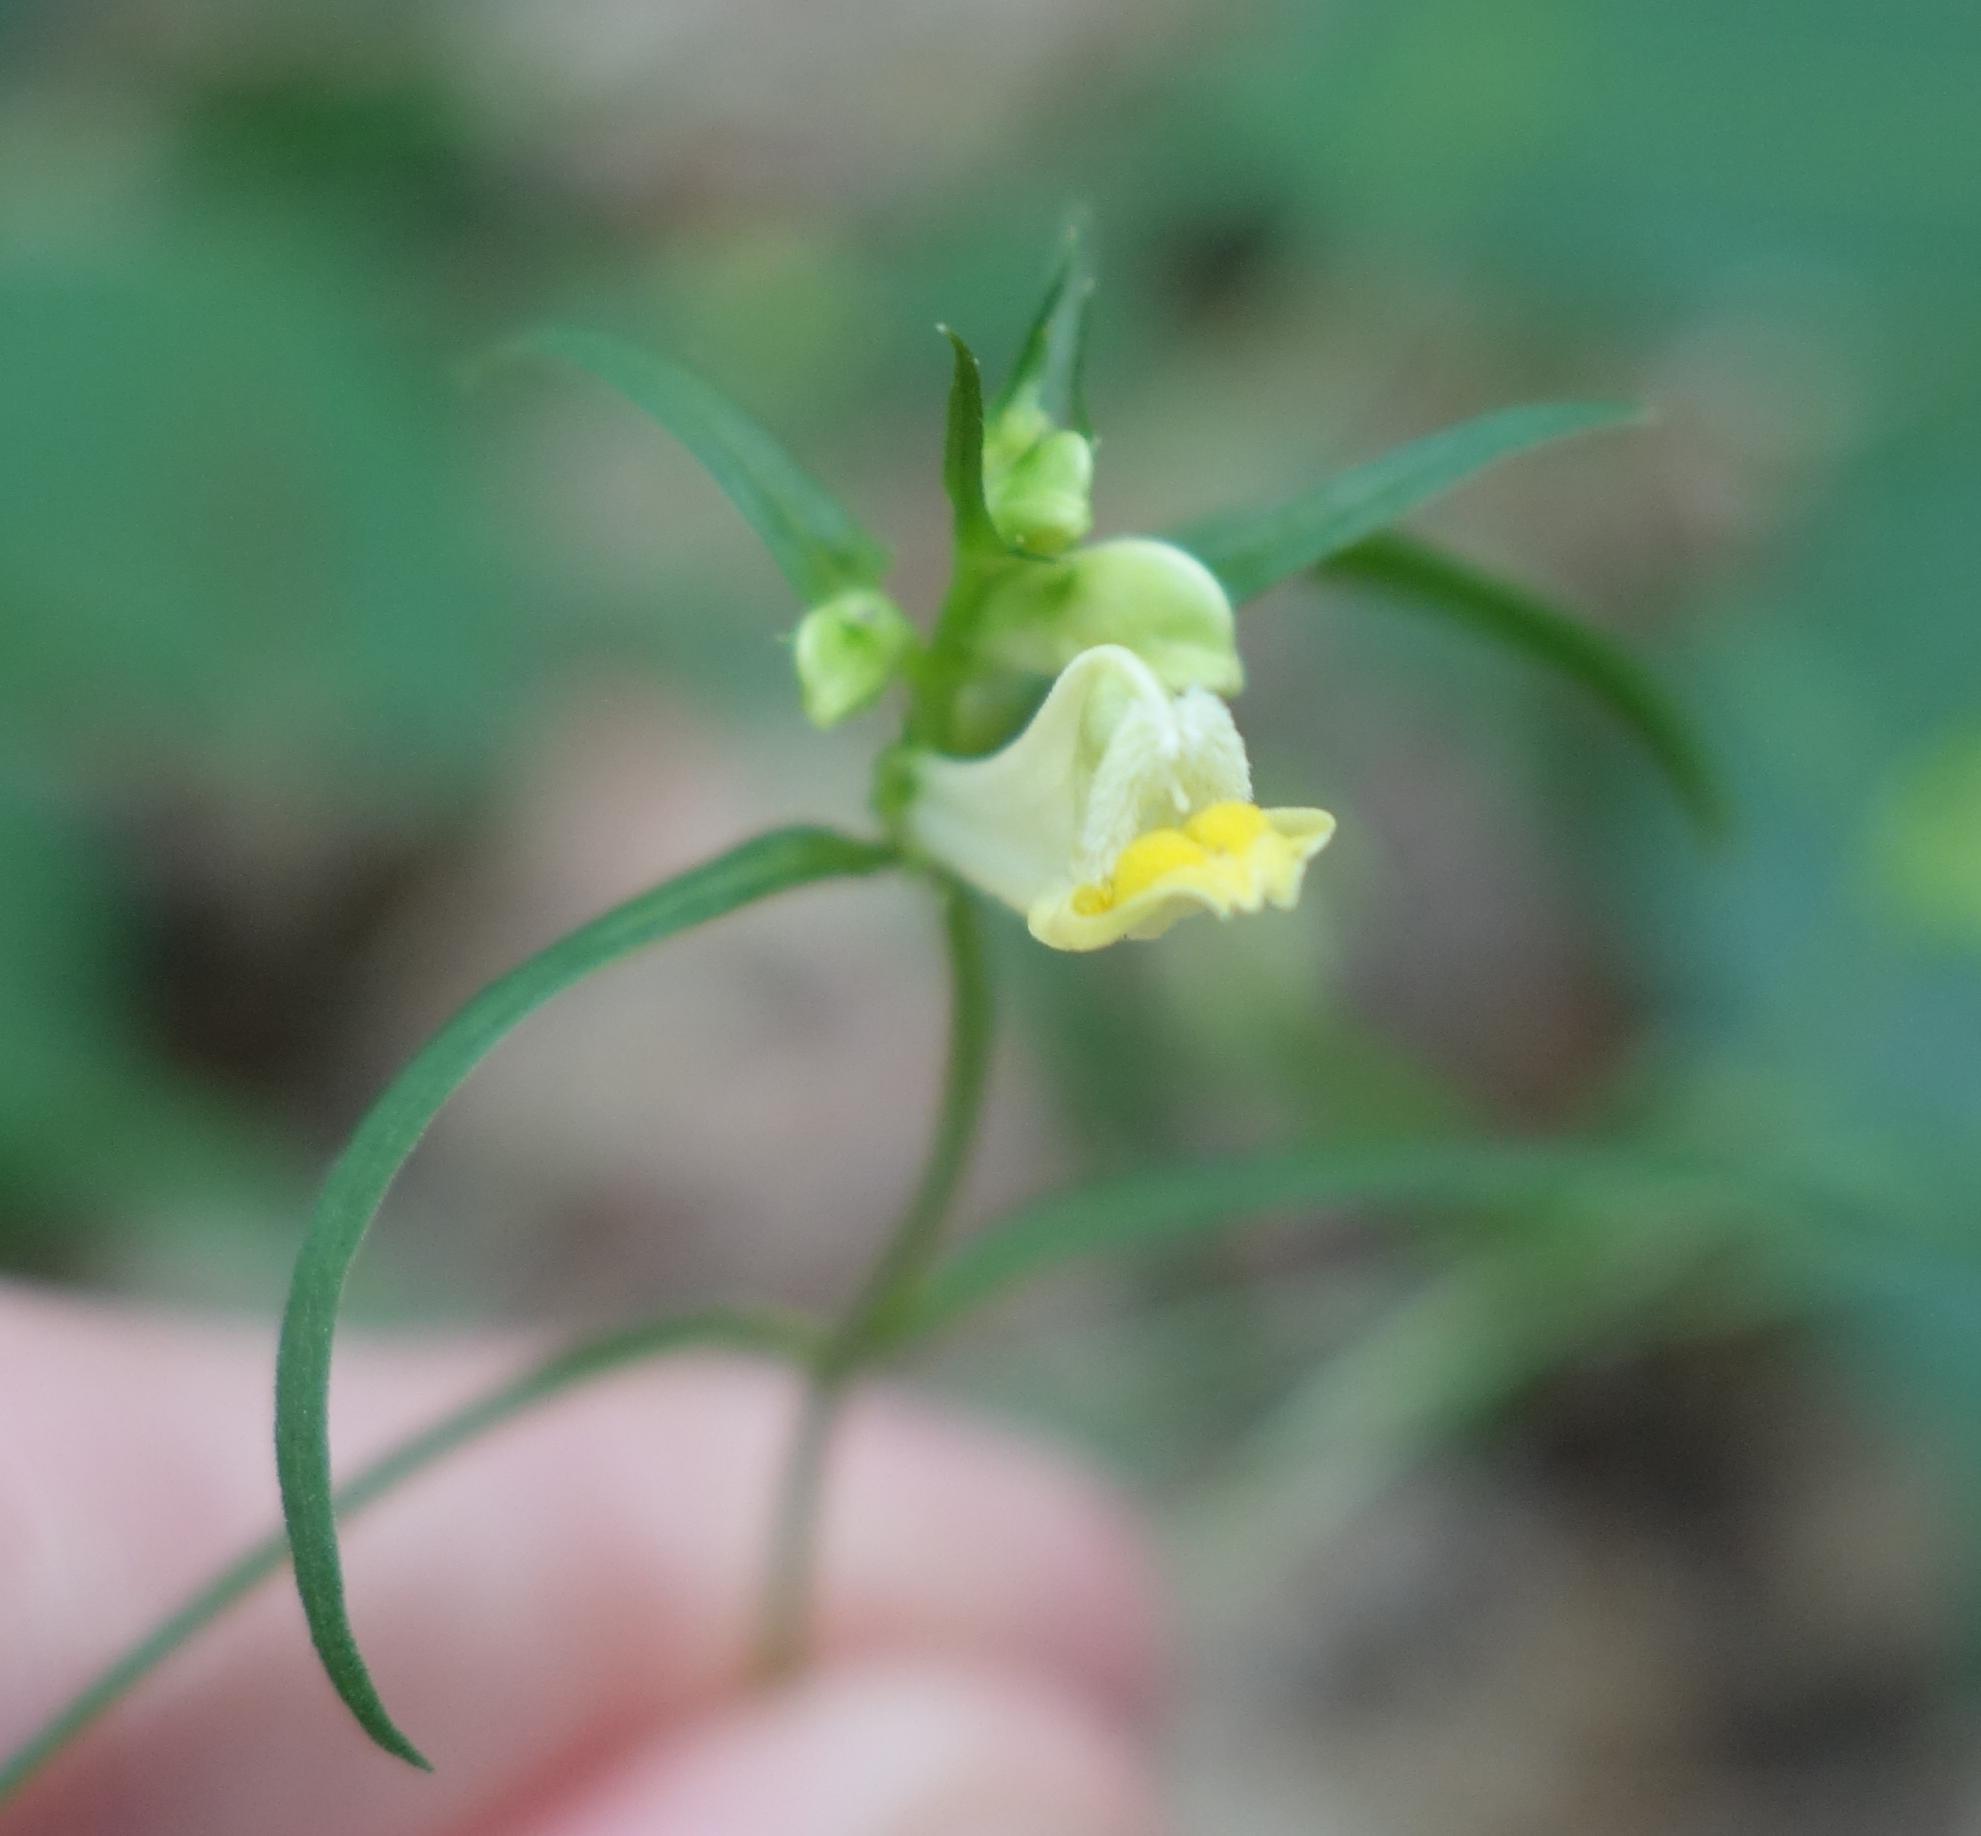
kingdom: Plantae
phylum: Tracheophyta
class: Magnoliopsida
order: Lamiales
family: Orobanchaceae
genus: Melampyrum
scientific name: Melampyrum pratense
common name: Common cow-wheat
